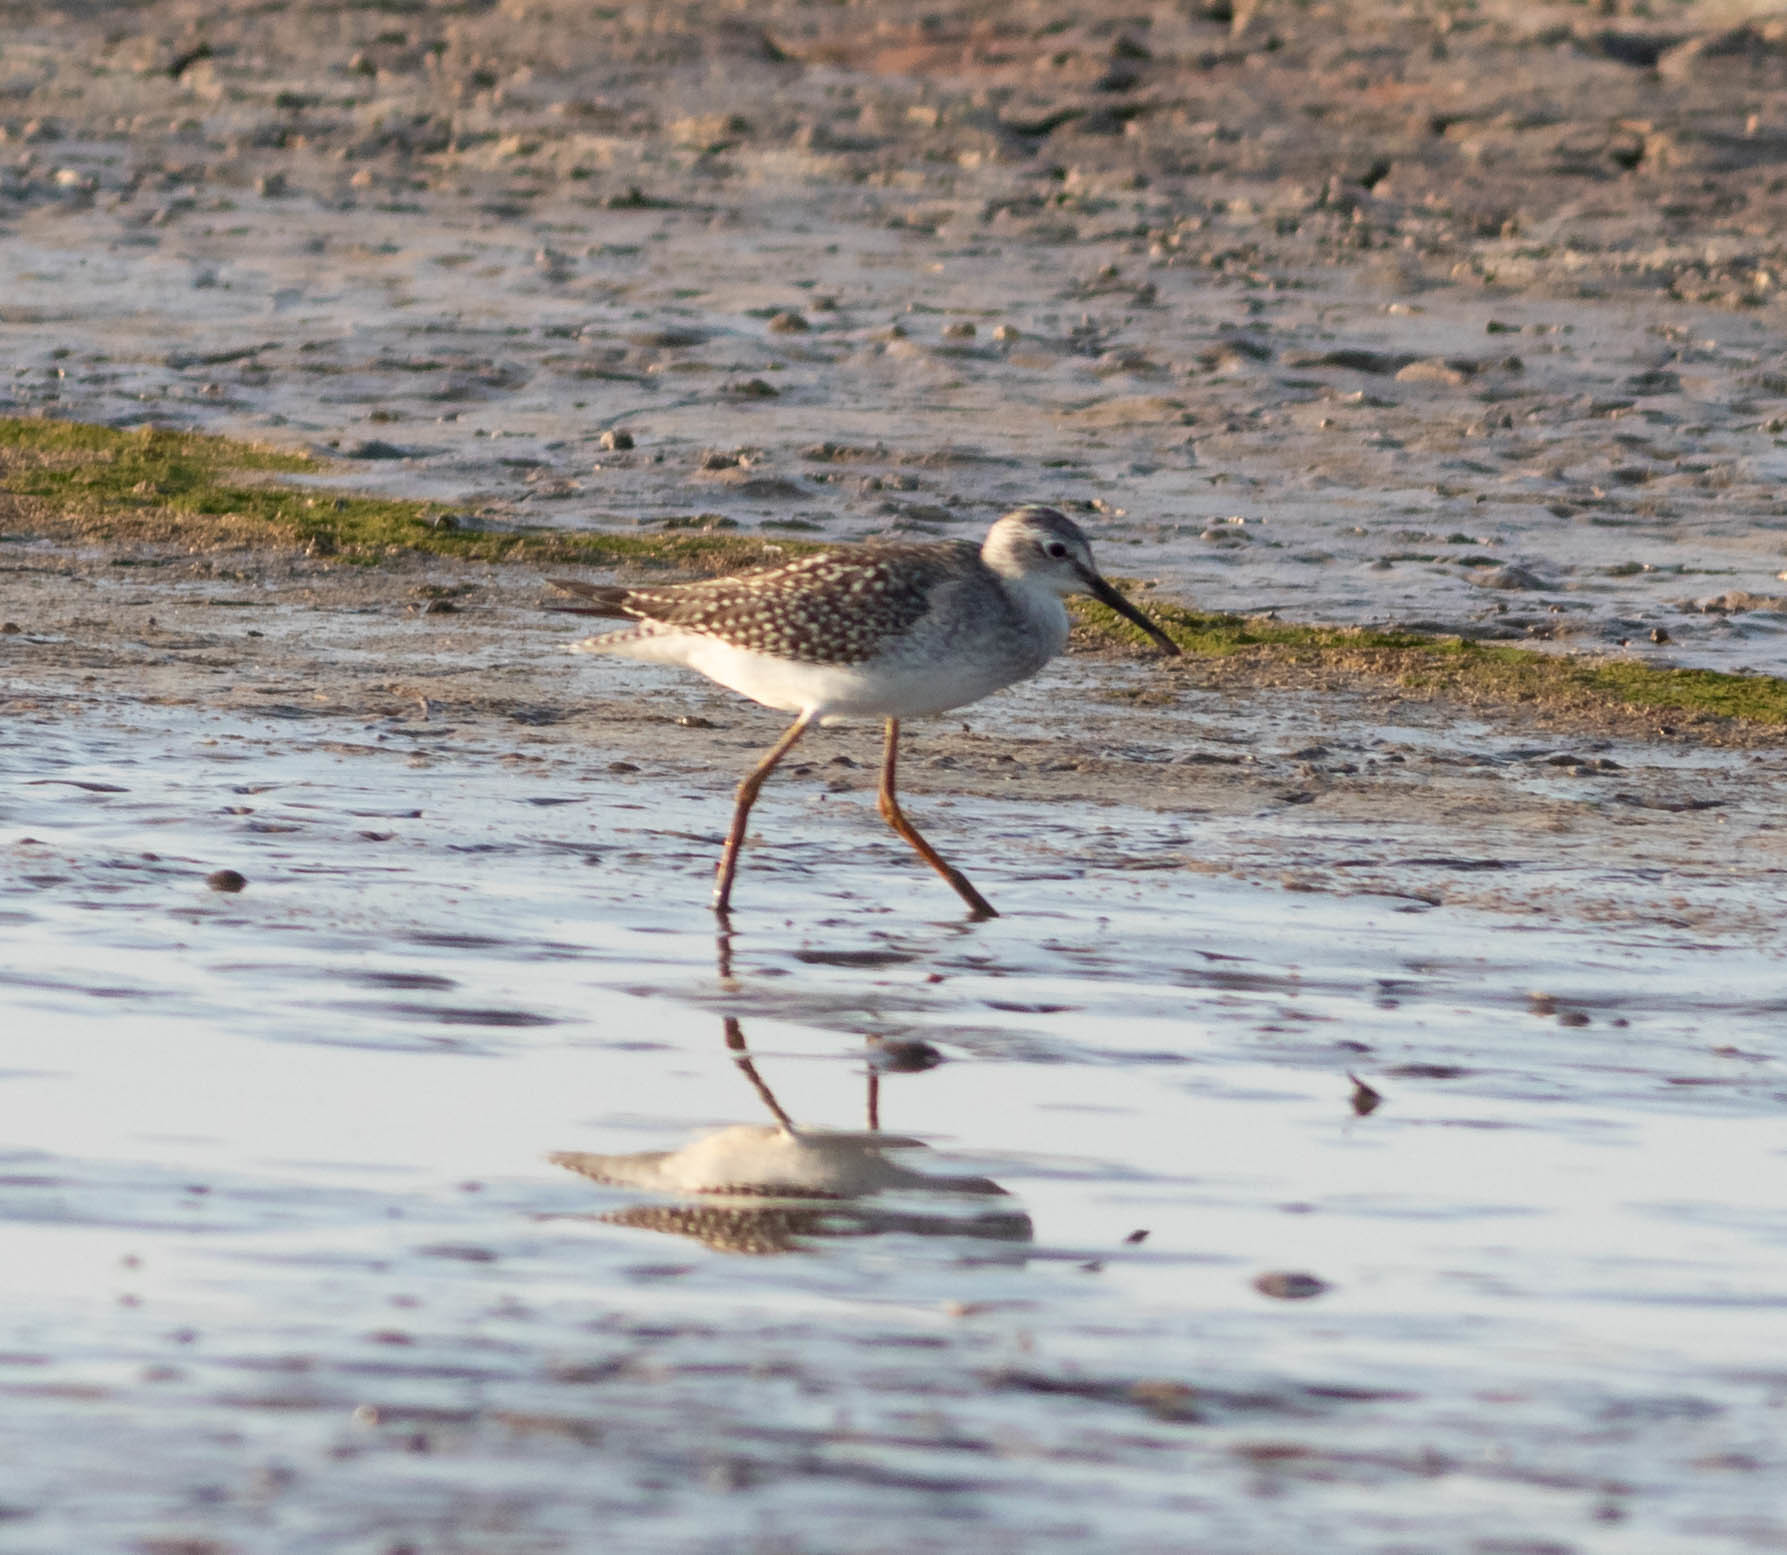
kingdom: Animalia
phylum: Chordata
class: Aves
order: Charadriiformes
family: Scolopacidae
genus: Tringa
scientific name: Tringa flavipes
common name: Lesser yellowlegs
